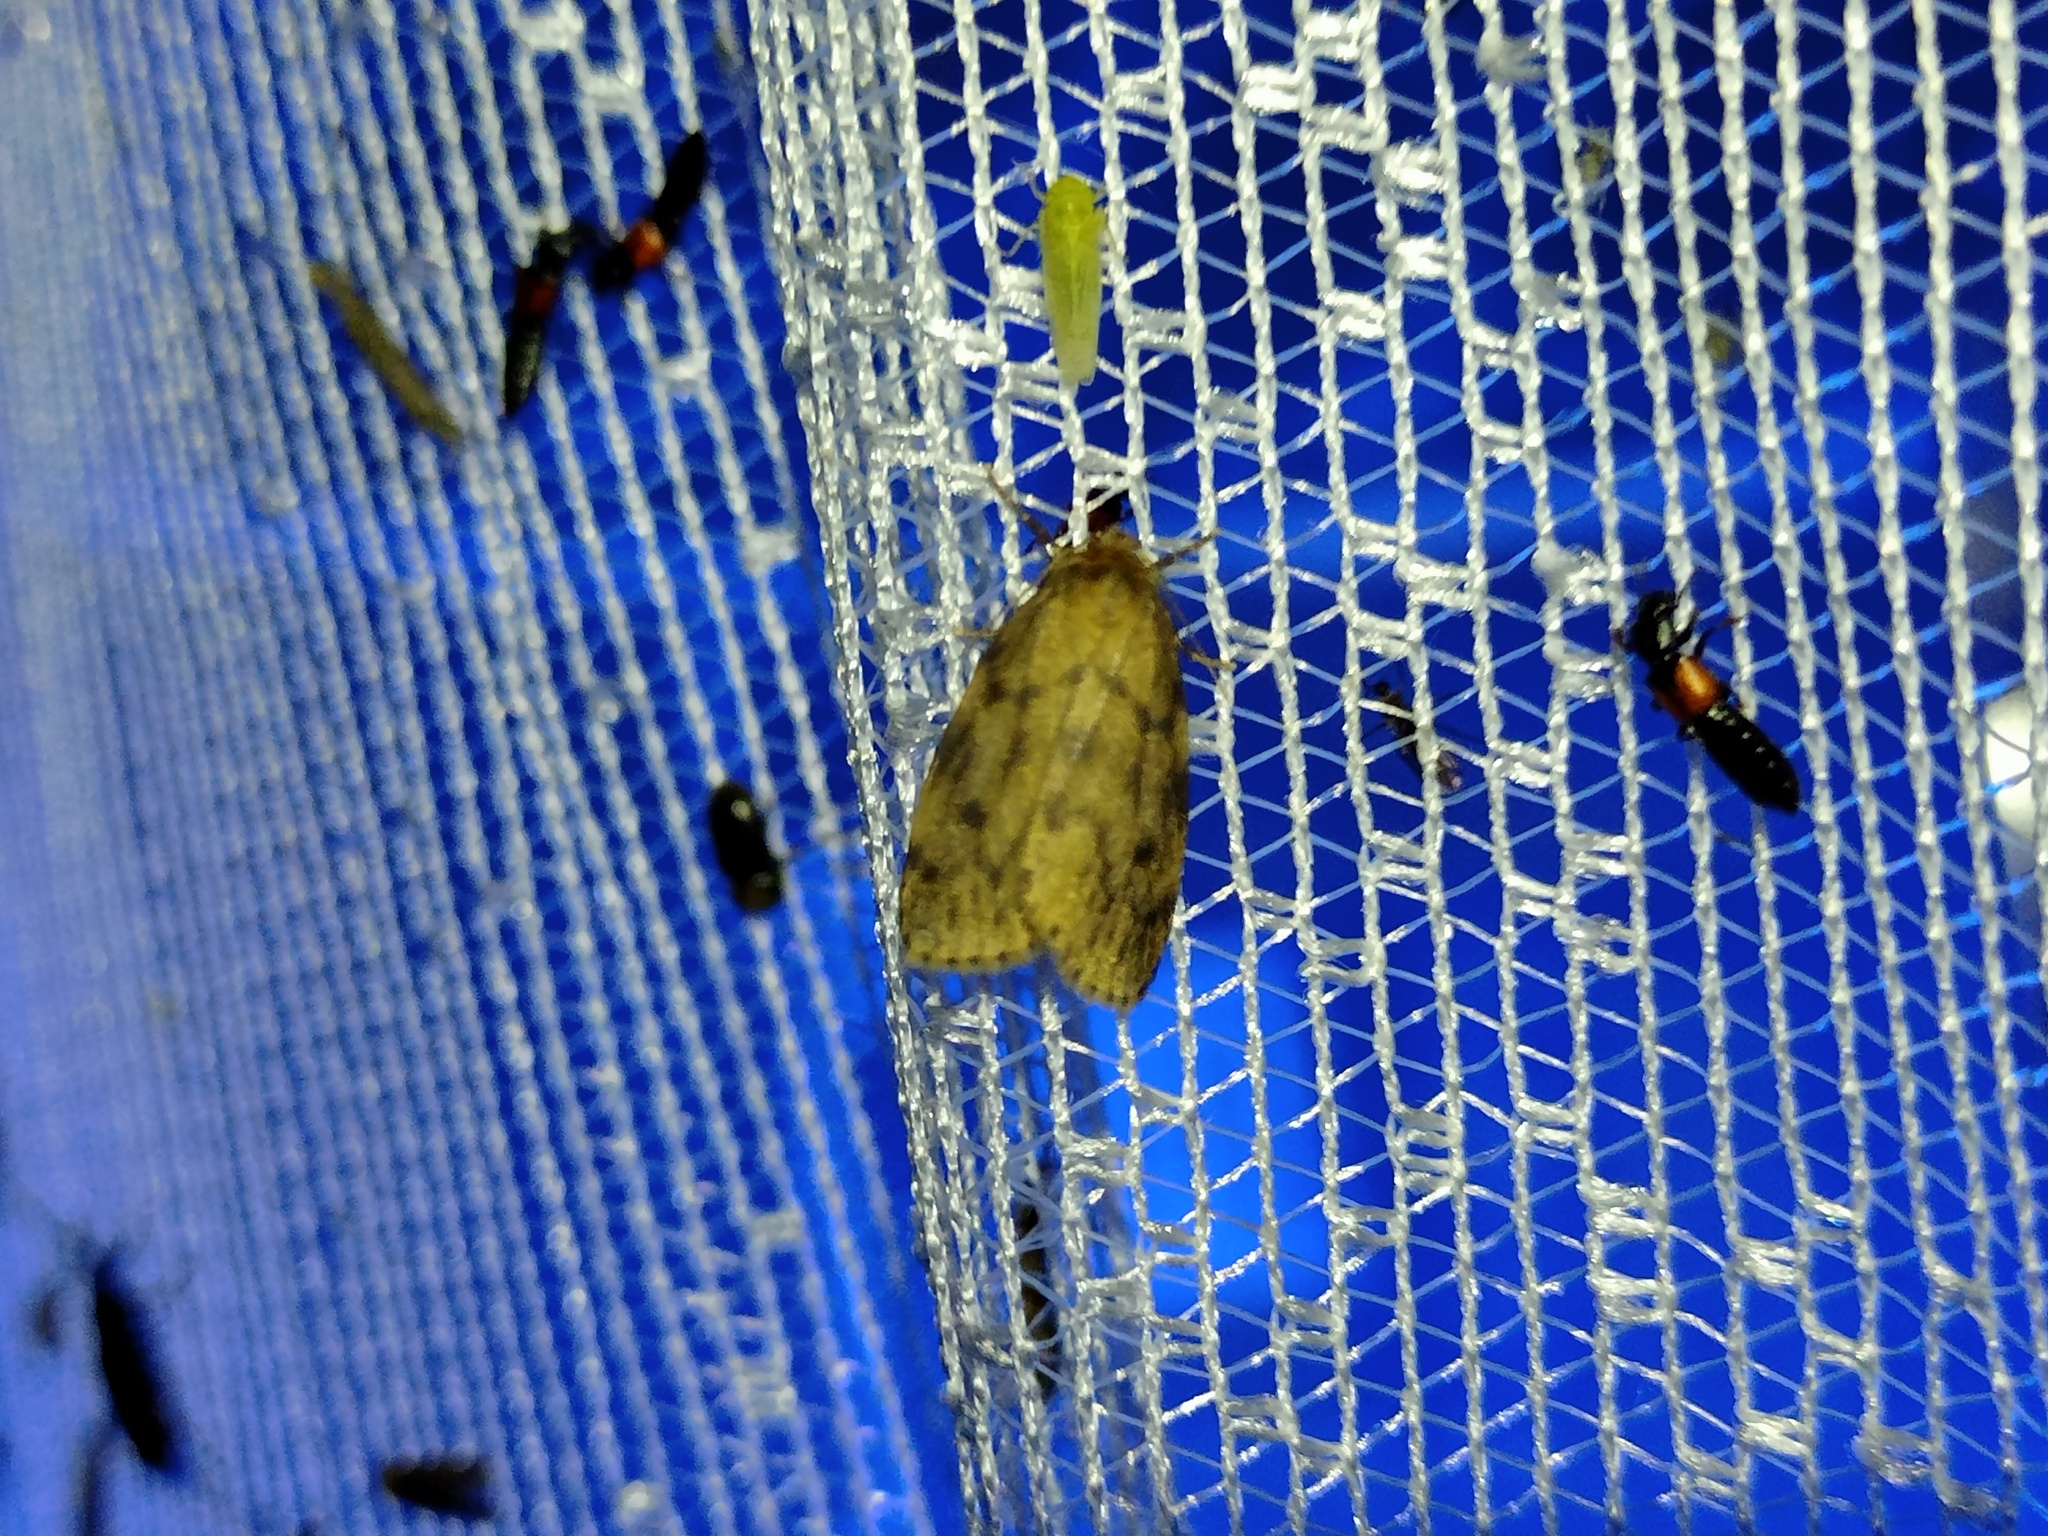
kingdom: Animalia
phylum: Arthropoda
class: Insecta
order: Lepidoptera
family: Erebidae
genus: Thumatha
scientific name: Thumatha senex
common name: Round-winged muslin
